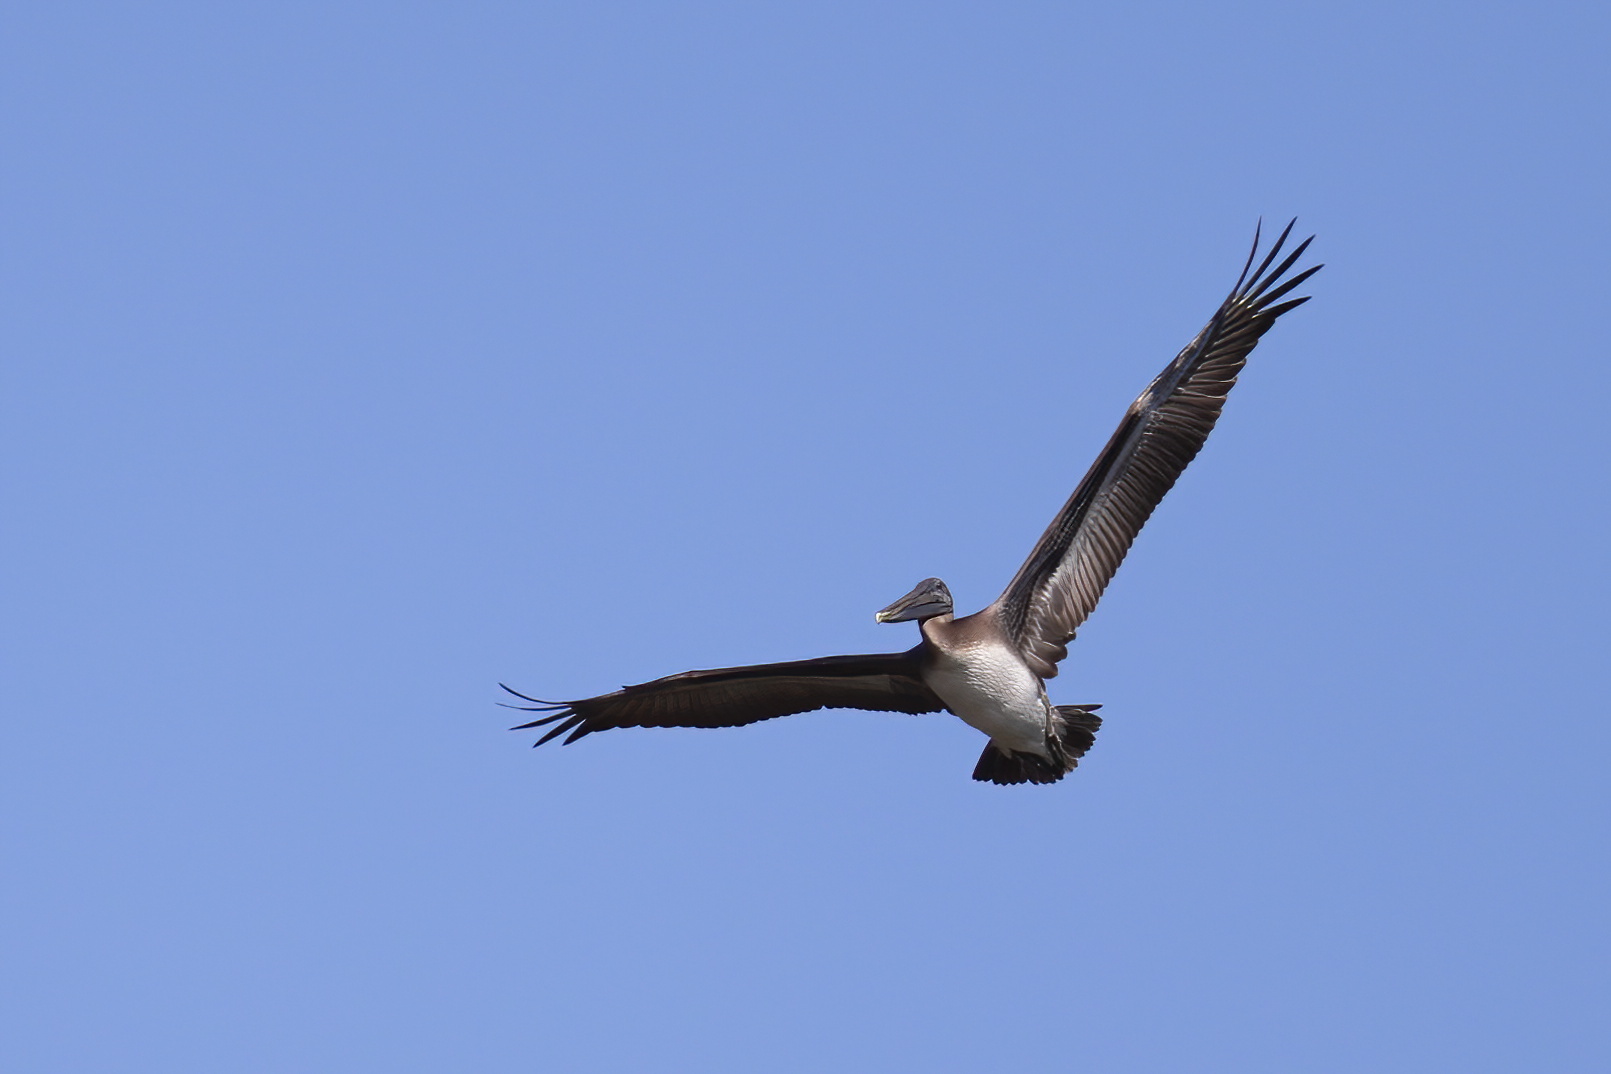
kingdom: Animalia
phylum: Chordata
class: Aves
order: Pelecaniformes
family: Pelecanidae
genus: Pelecanus
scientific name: Pelecanus occidentalis
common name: Brown pelican
